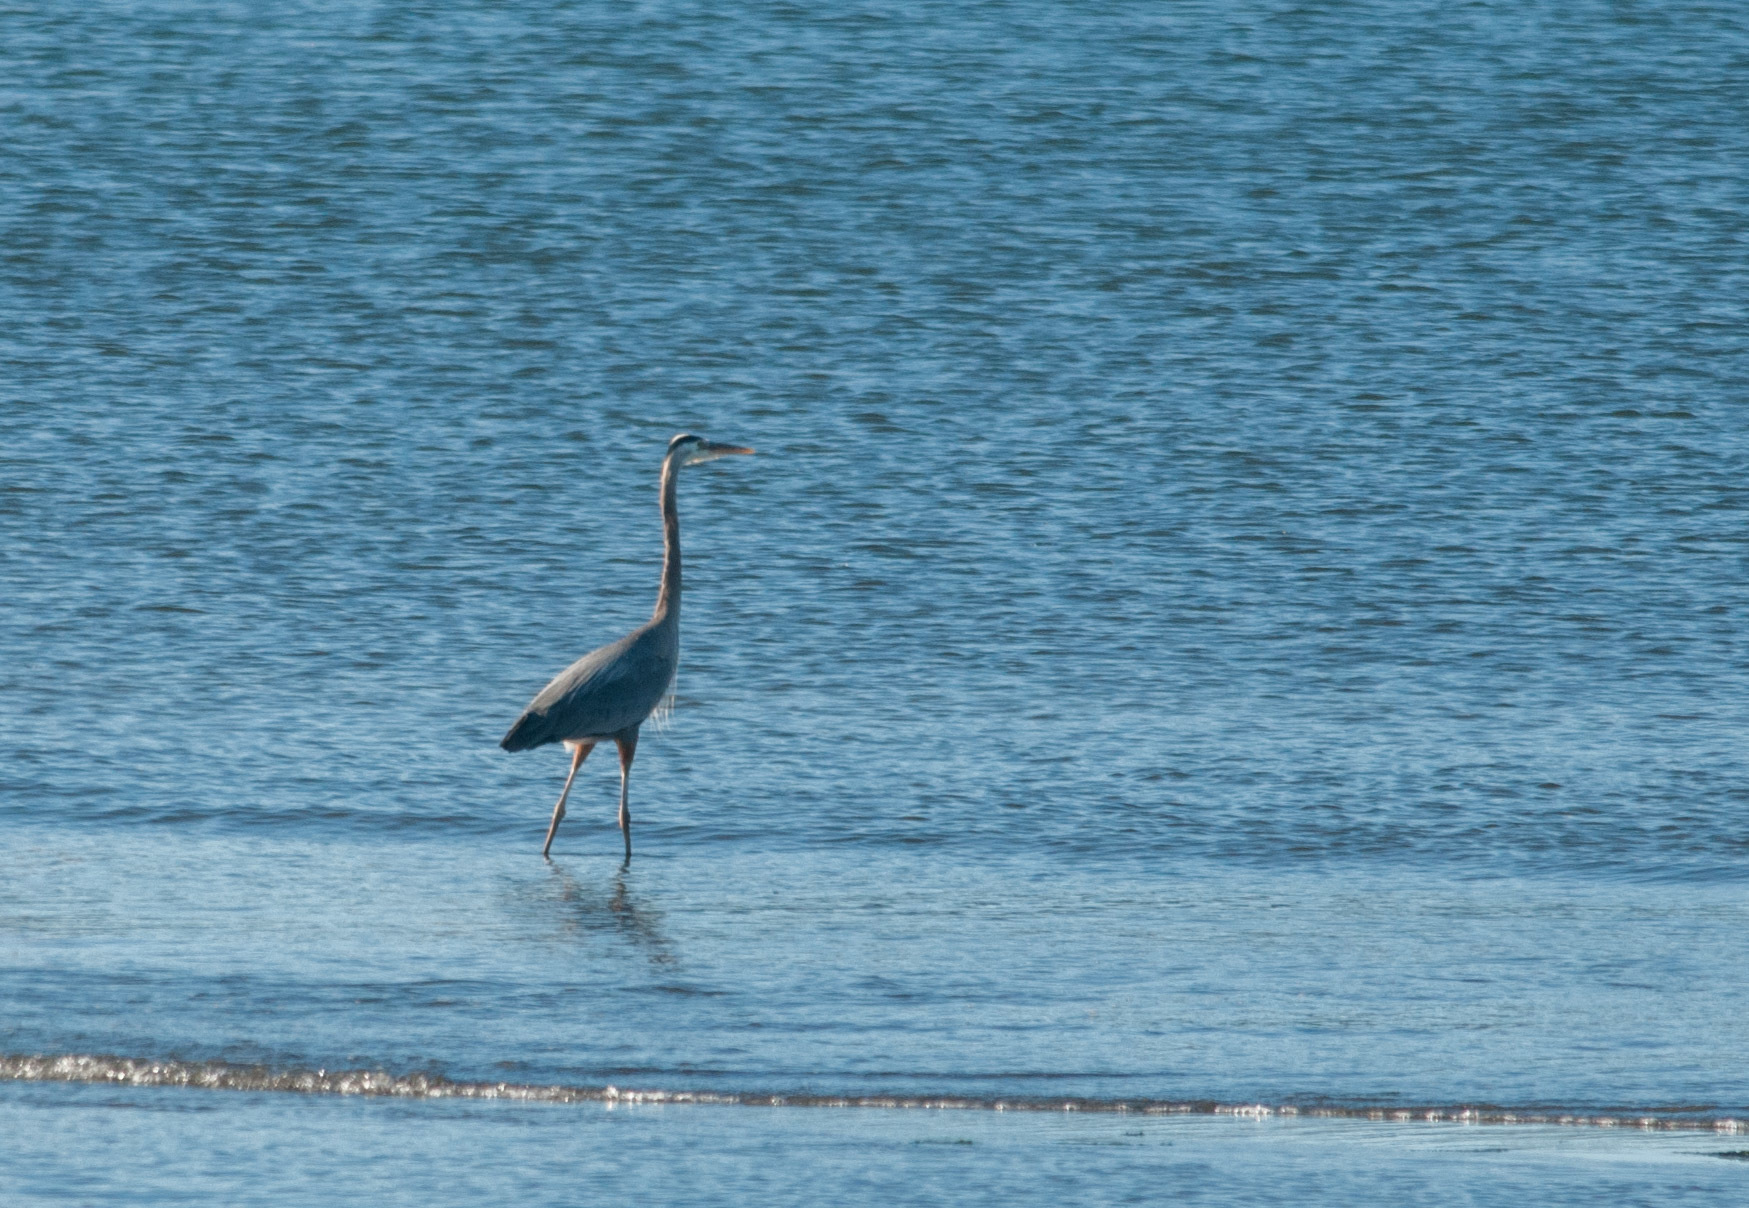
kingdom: Animalia
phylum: Chordata
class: Aves
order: Pelecaniformes
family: Ardeidae
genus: Ardea
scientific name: Ardea herodias
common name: Great blue heron
